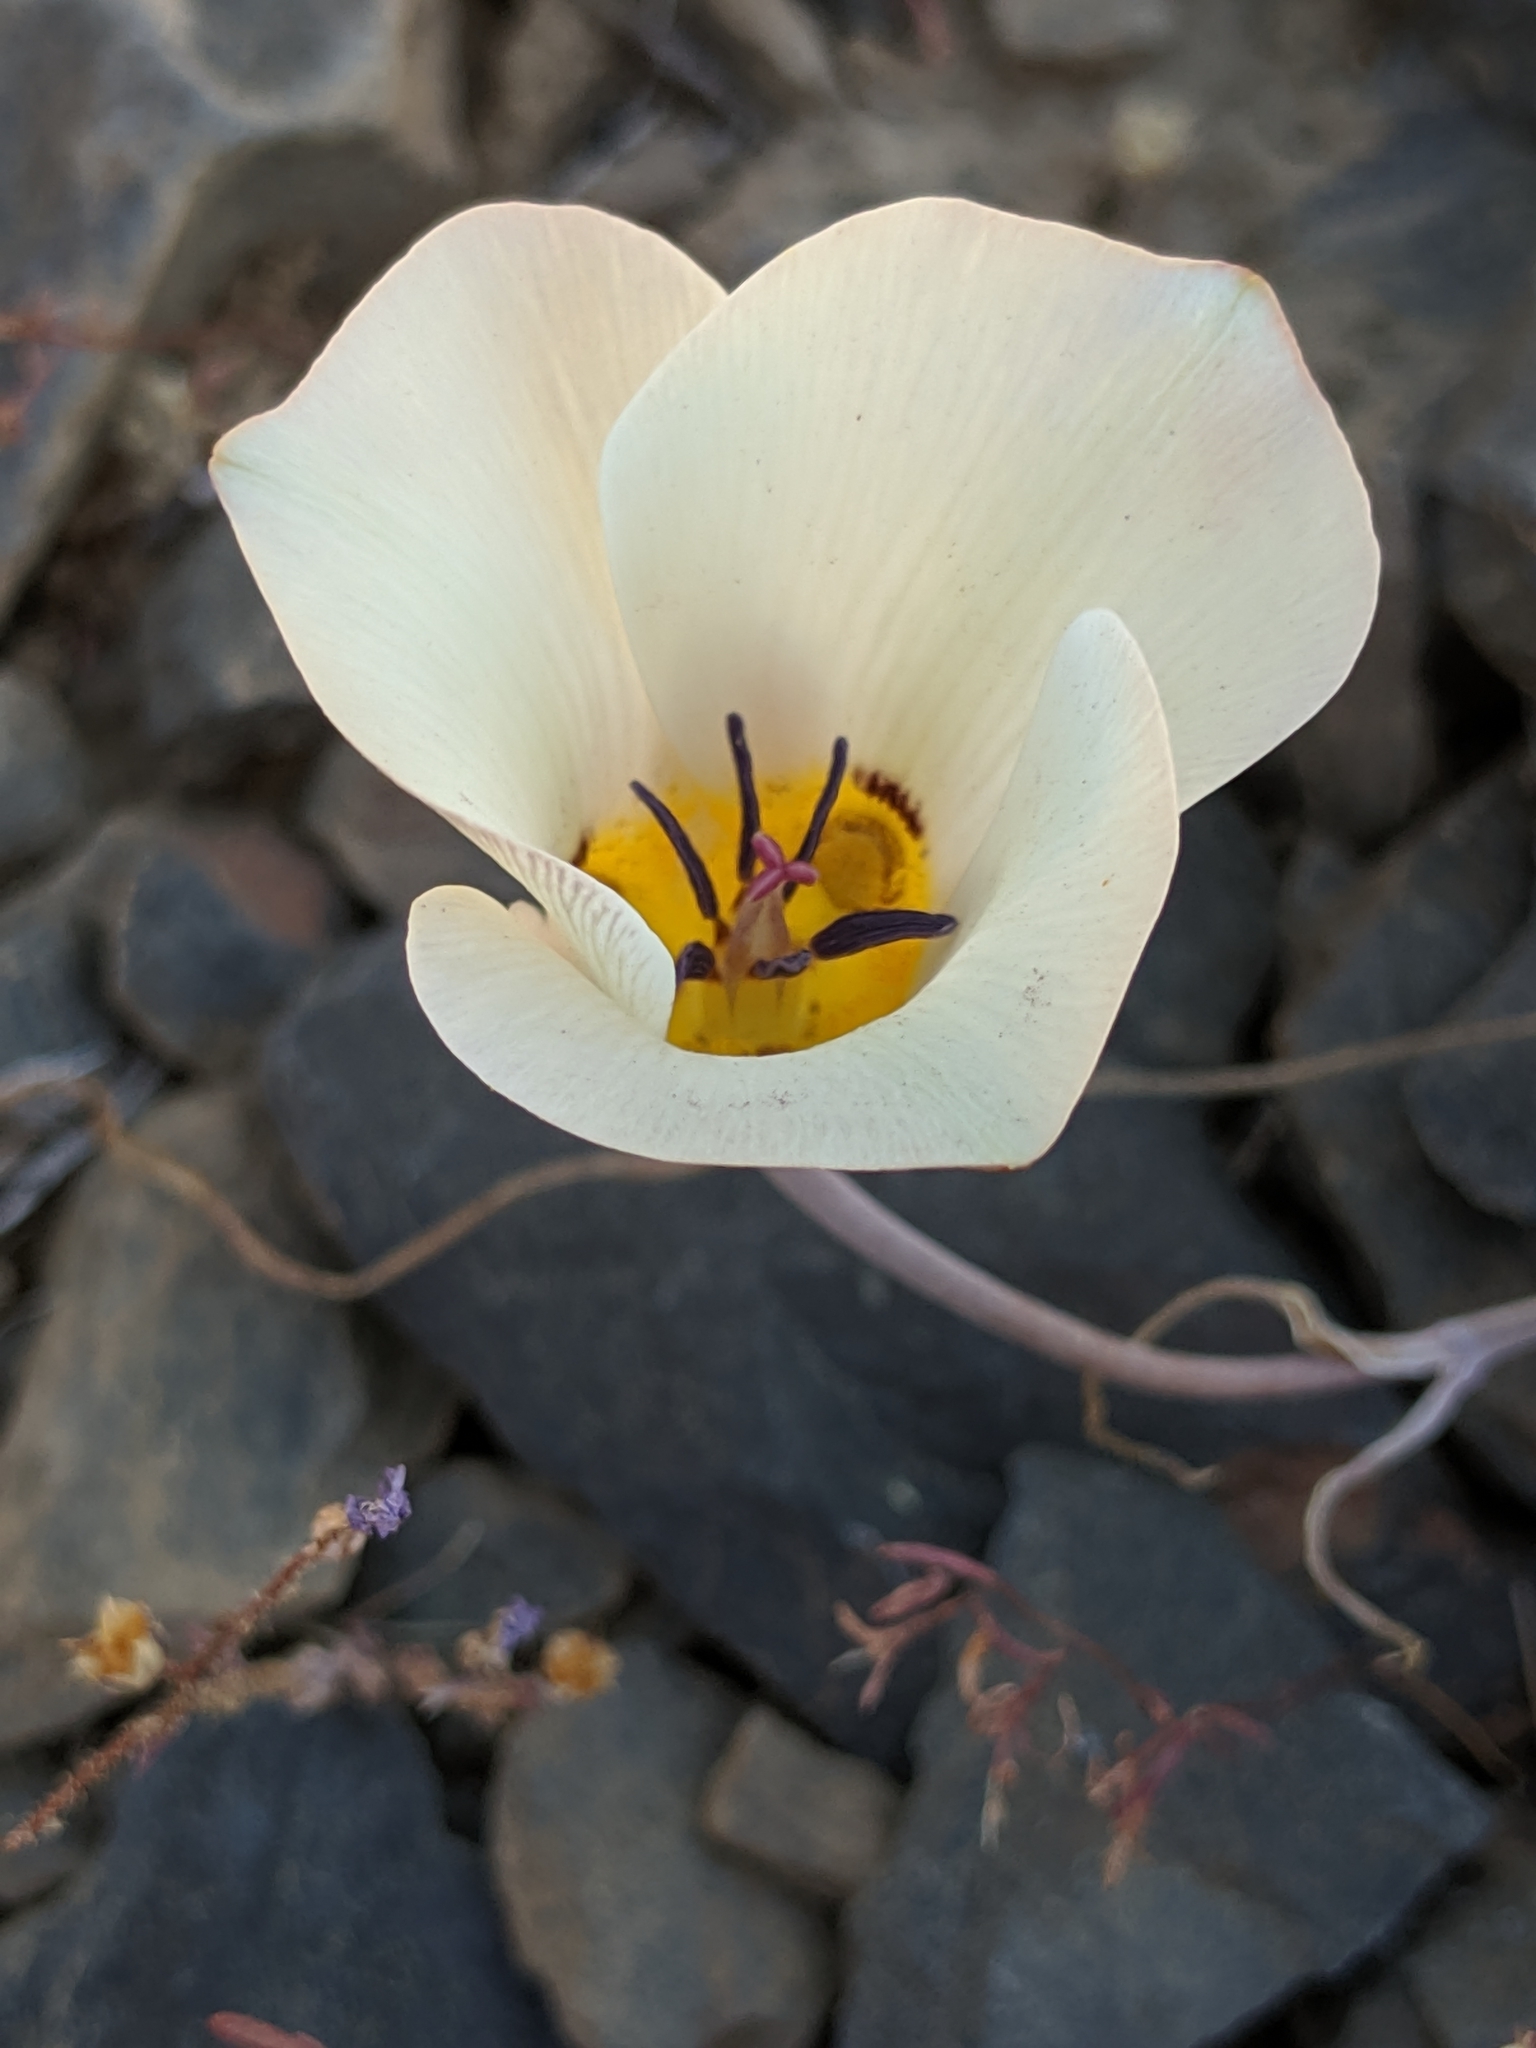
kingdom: Plantae
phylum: Tracheophyta
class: Liliopsida
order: Liliales
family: Liliaceae
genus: Calochortus
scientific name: Calochortus bruneaunis
